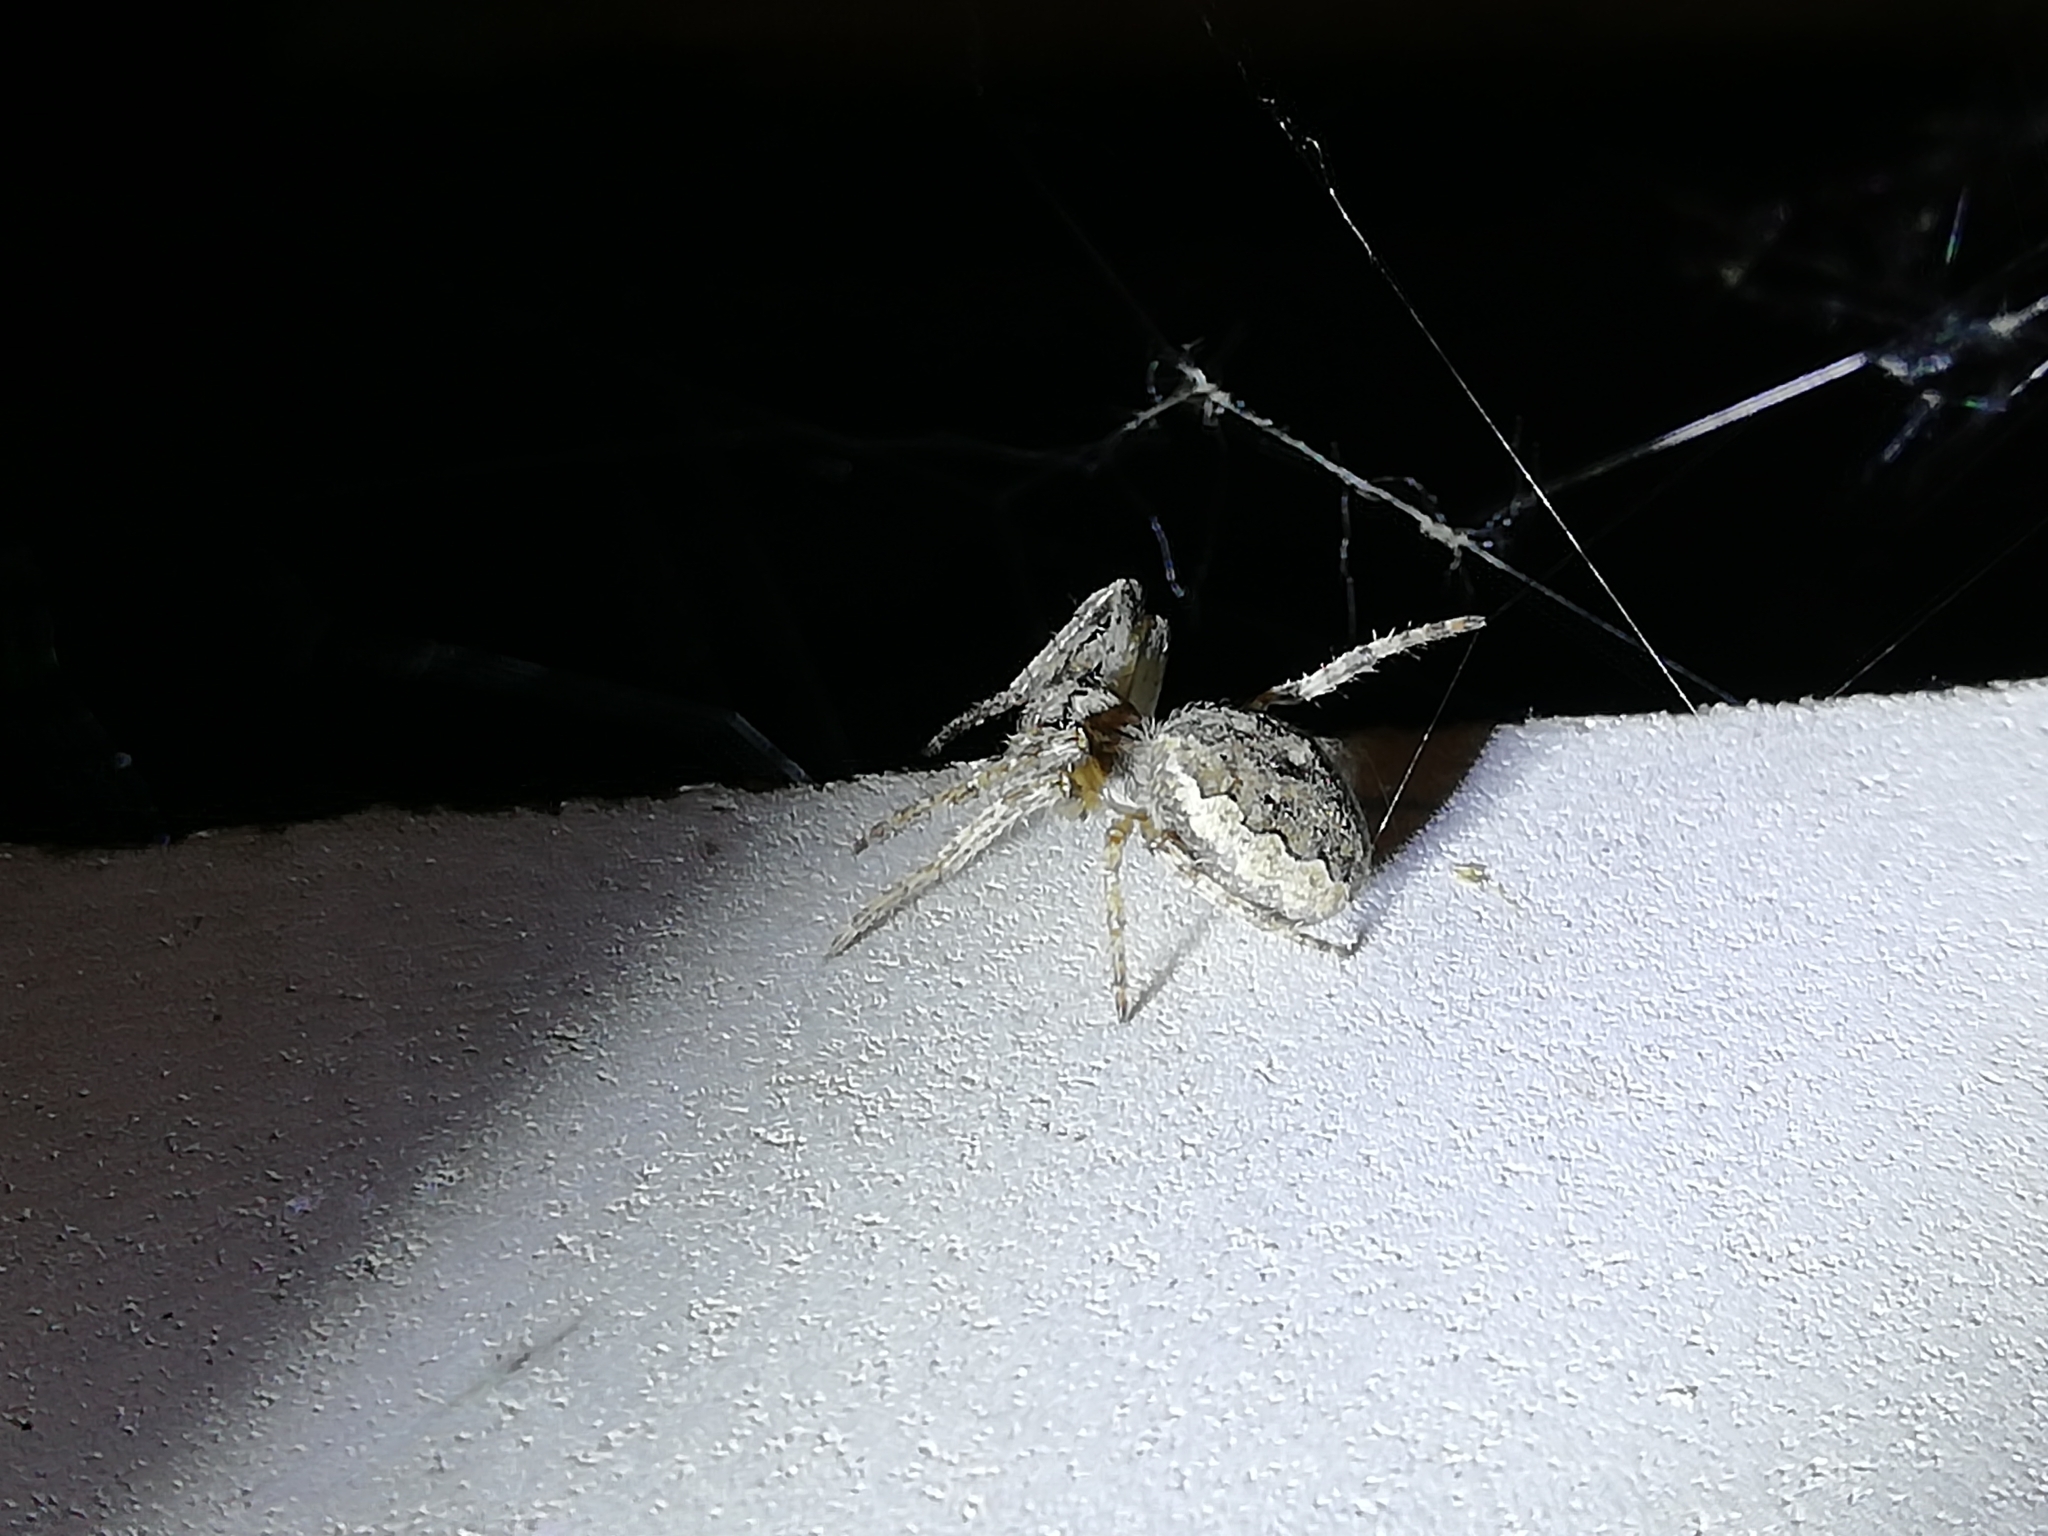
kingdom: Animalia
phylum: Arthropoda
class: Arachnida
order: Araneae
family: Araneidae
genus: Larinioides
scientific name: Larinioides ixobolus
